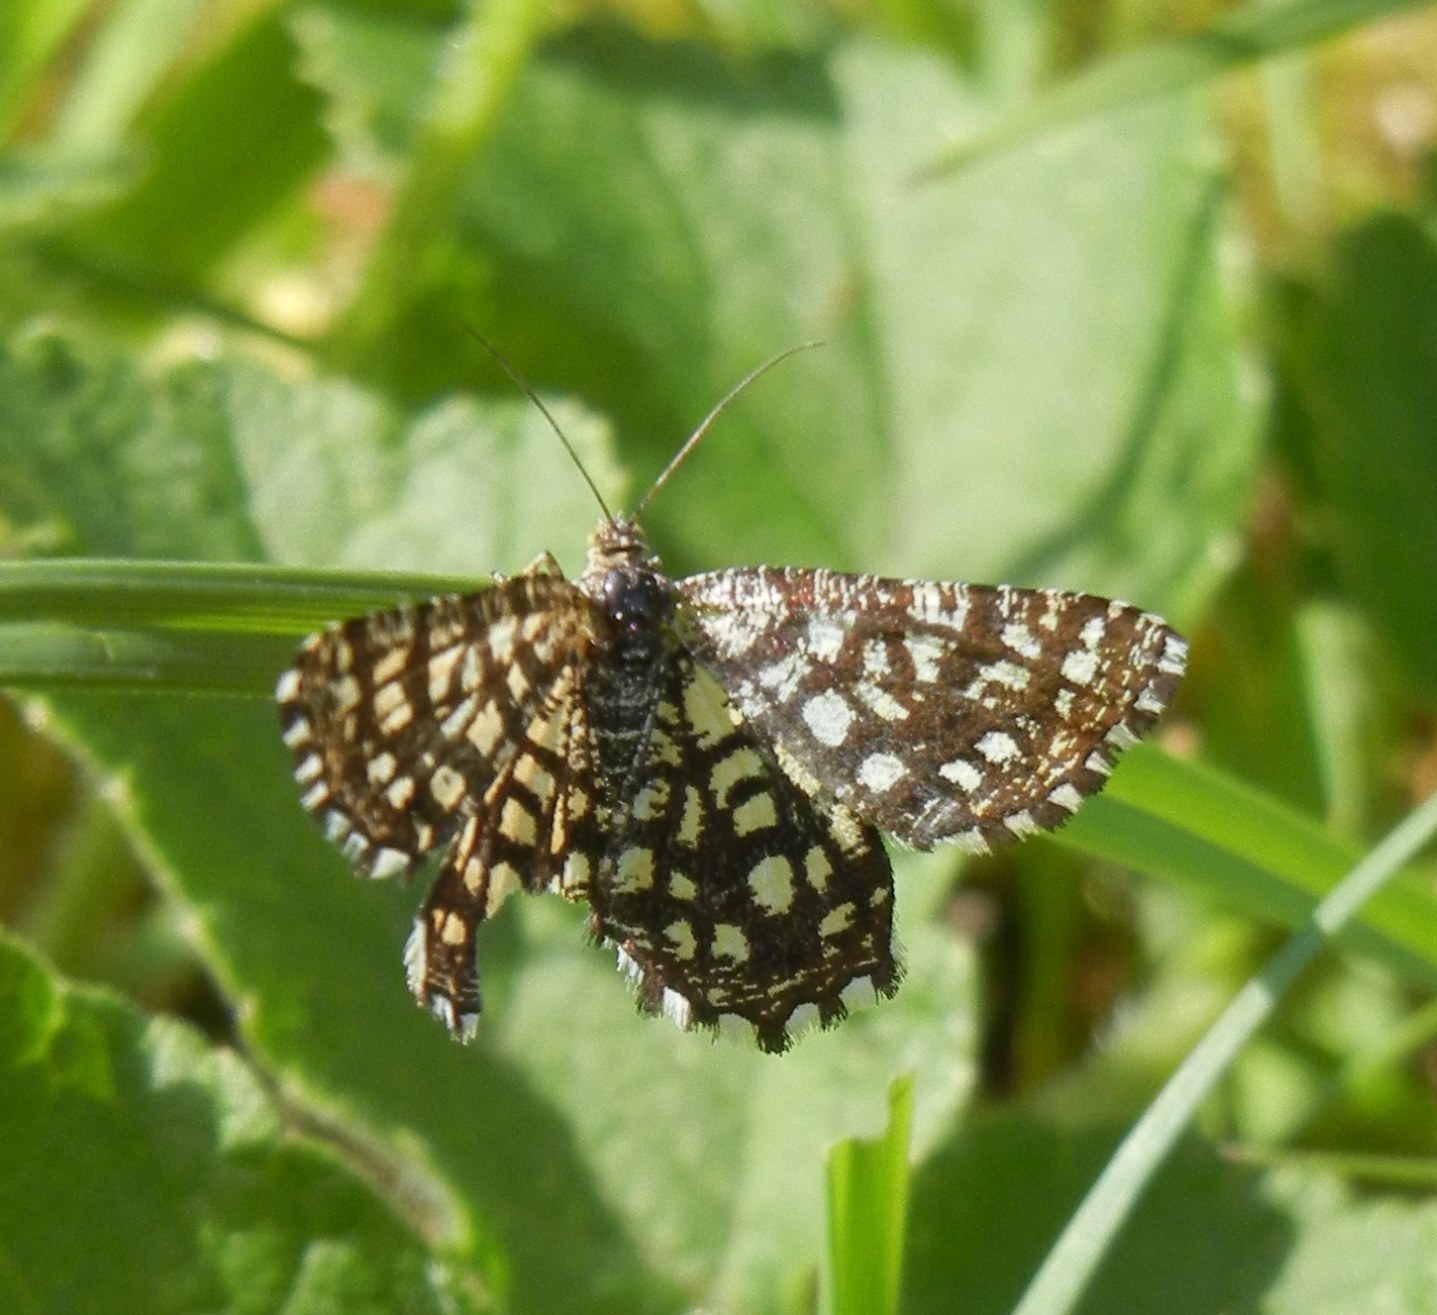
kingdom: Animalia
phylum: Arthropoda
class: Insecta
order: Lepidoptera
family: Geometridae
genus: Chiasmia
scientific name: Chiasmia clathrata
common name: Latticed heath
